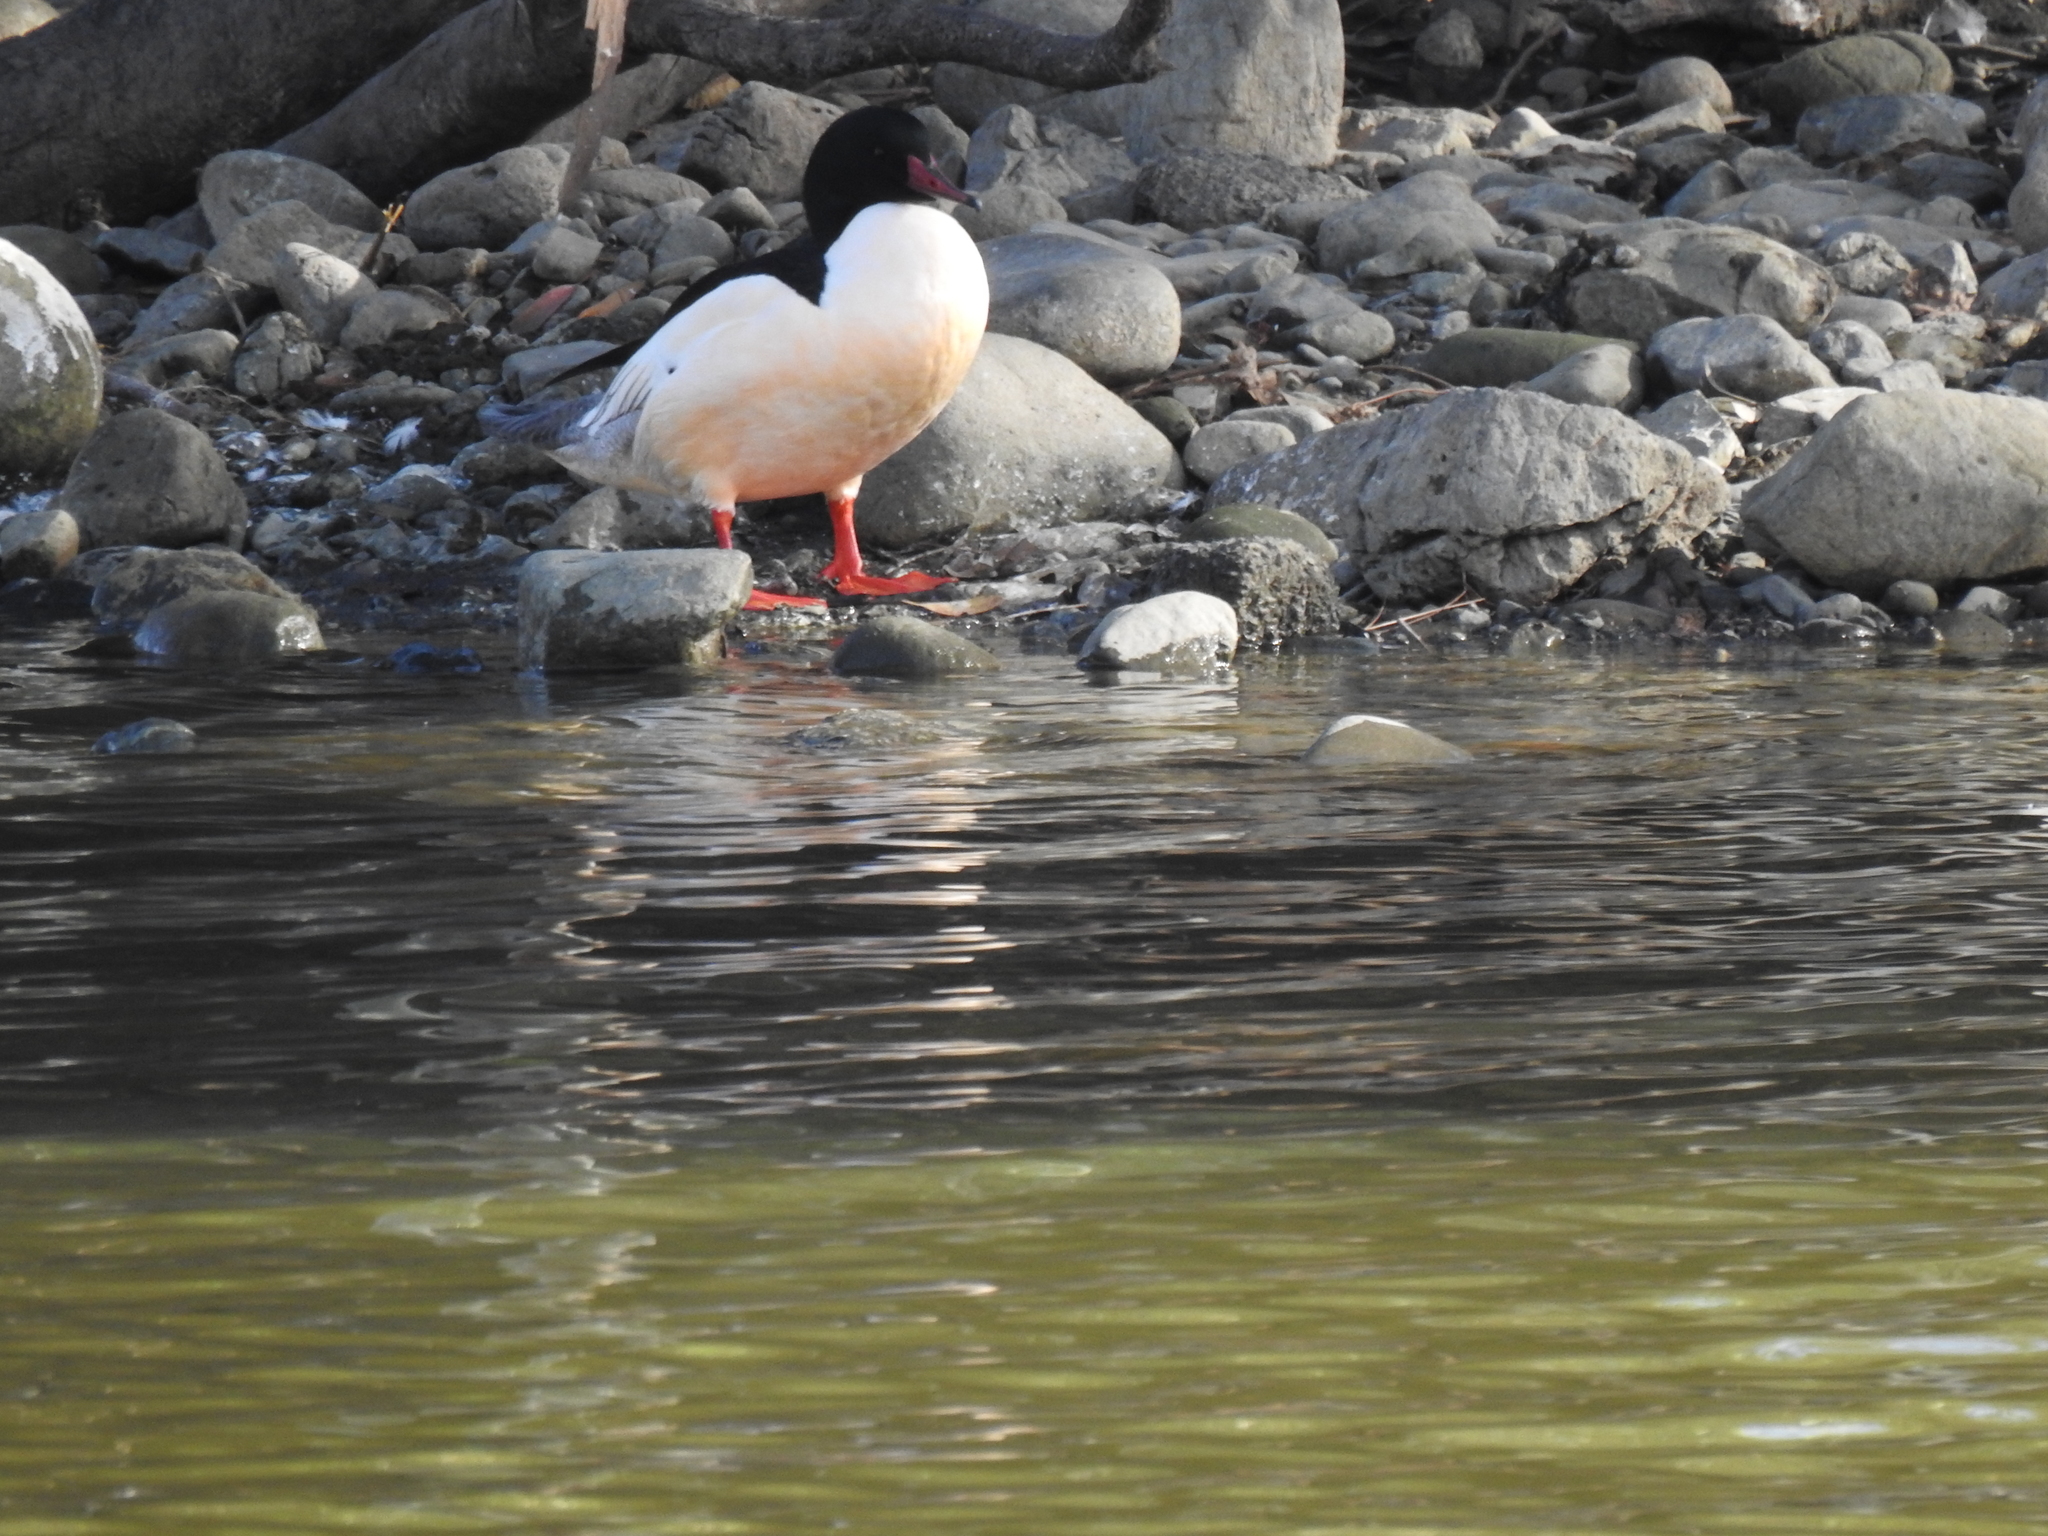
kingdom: Animalia
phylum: Chordata
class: Aves
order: Anseriformes
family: Anatidae
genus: Mergus
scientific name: Mergus merganser
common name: Common merganser
